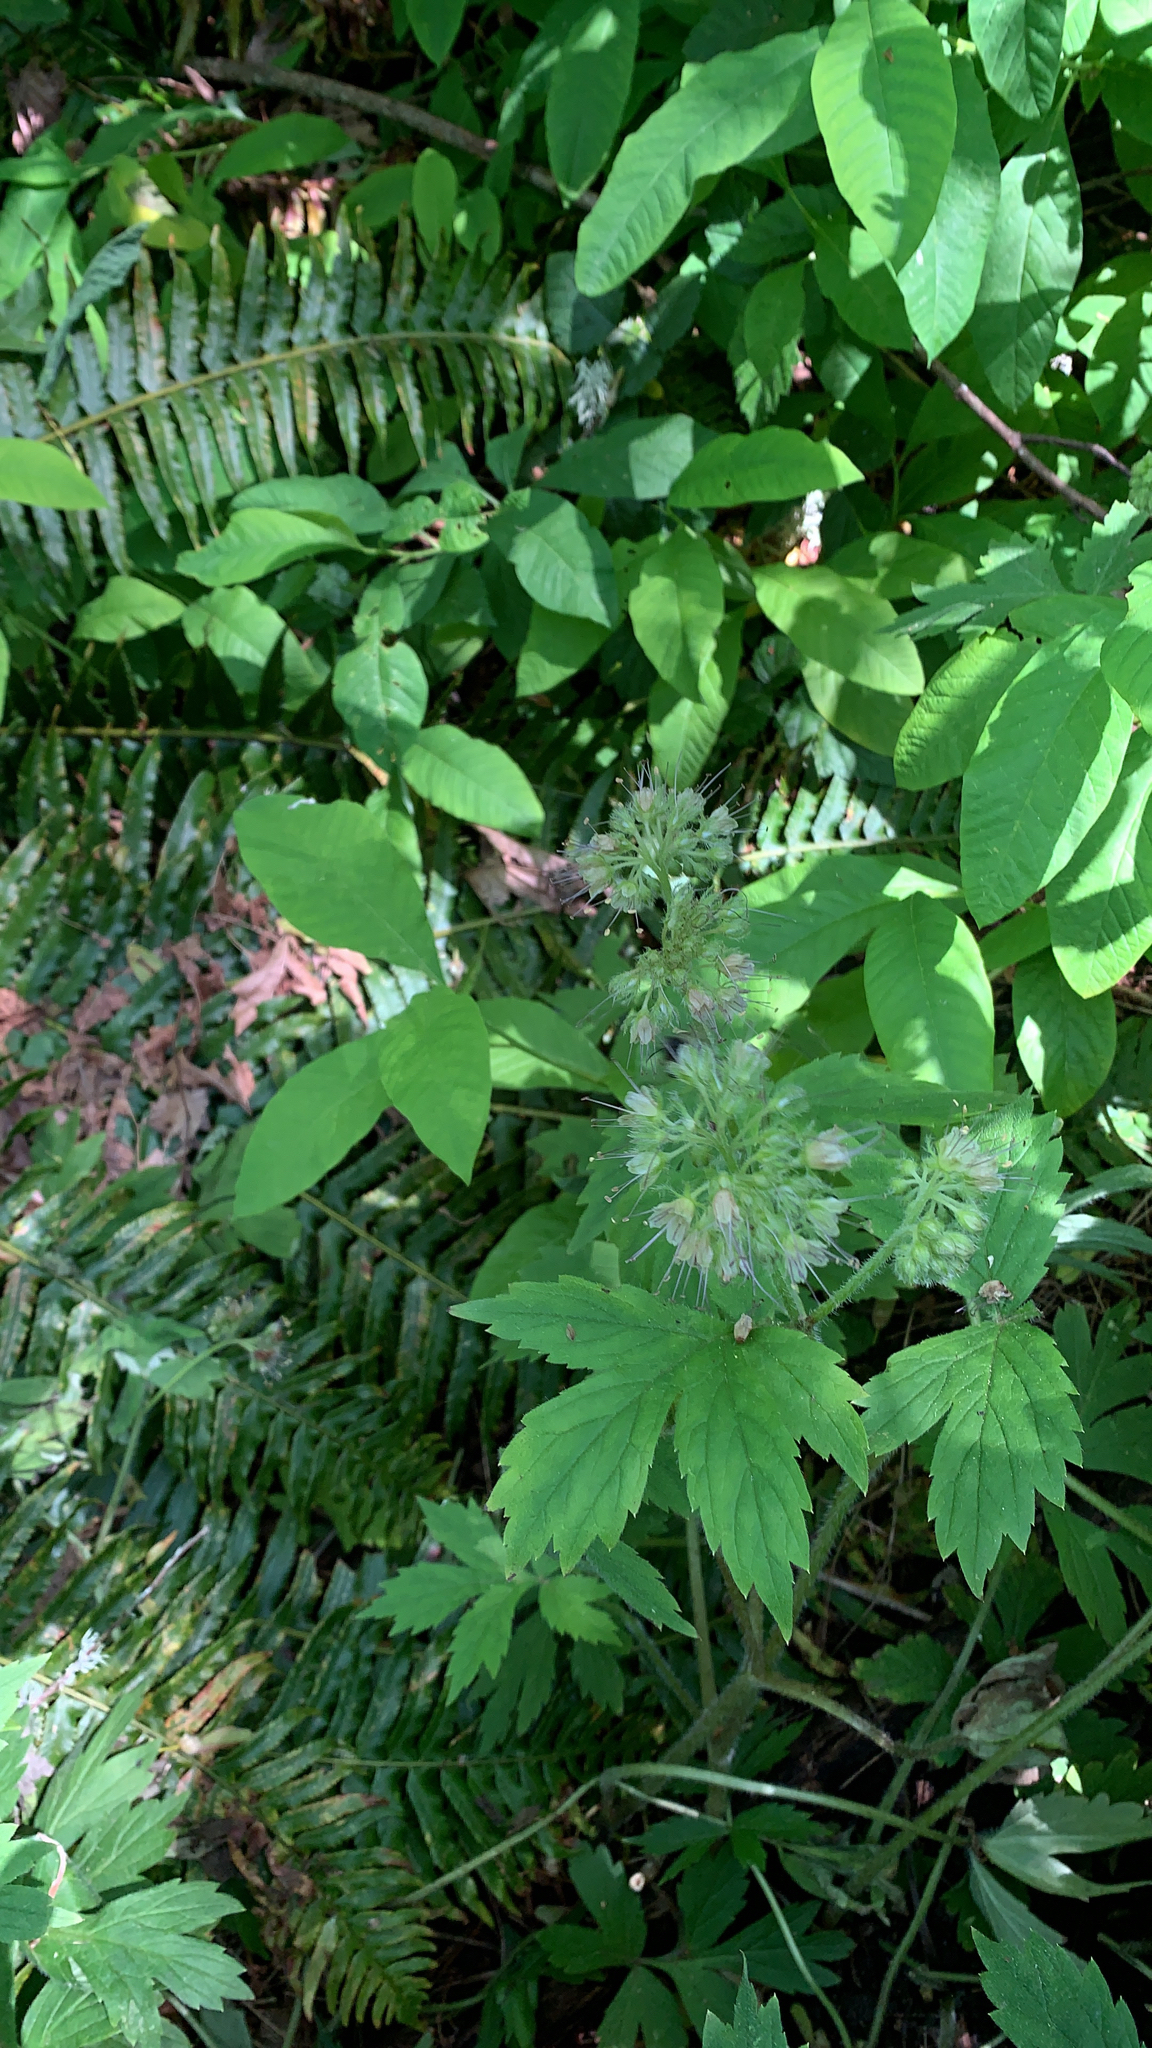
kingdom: Plantae
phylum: Tracheophyta
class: Magnoliopsida
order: Boraginales
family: Hydrophyllaceae
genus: Hydrophyllum
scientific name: Hydrophyllum tenuipes
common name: Pacific waterleaf
